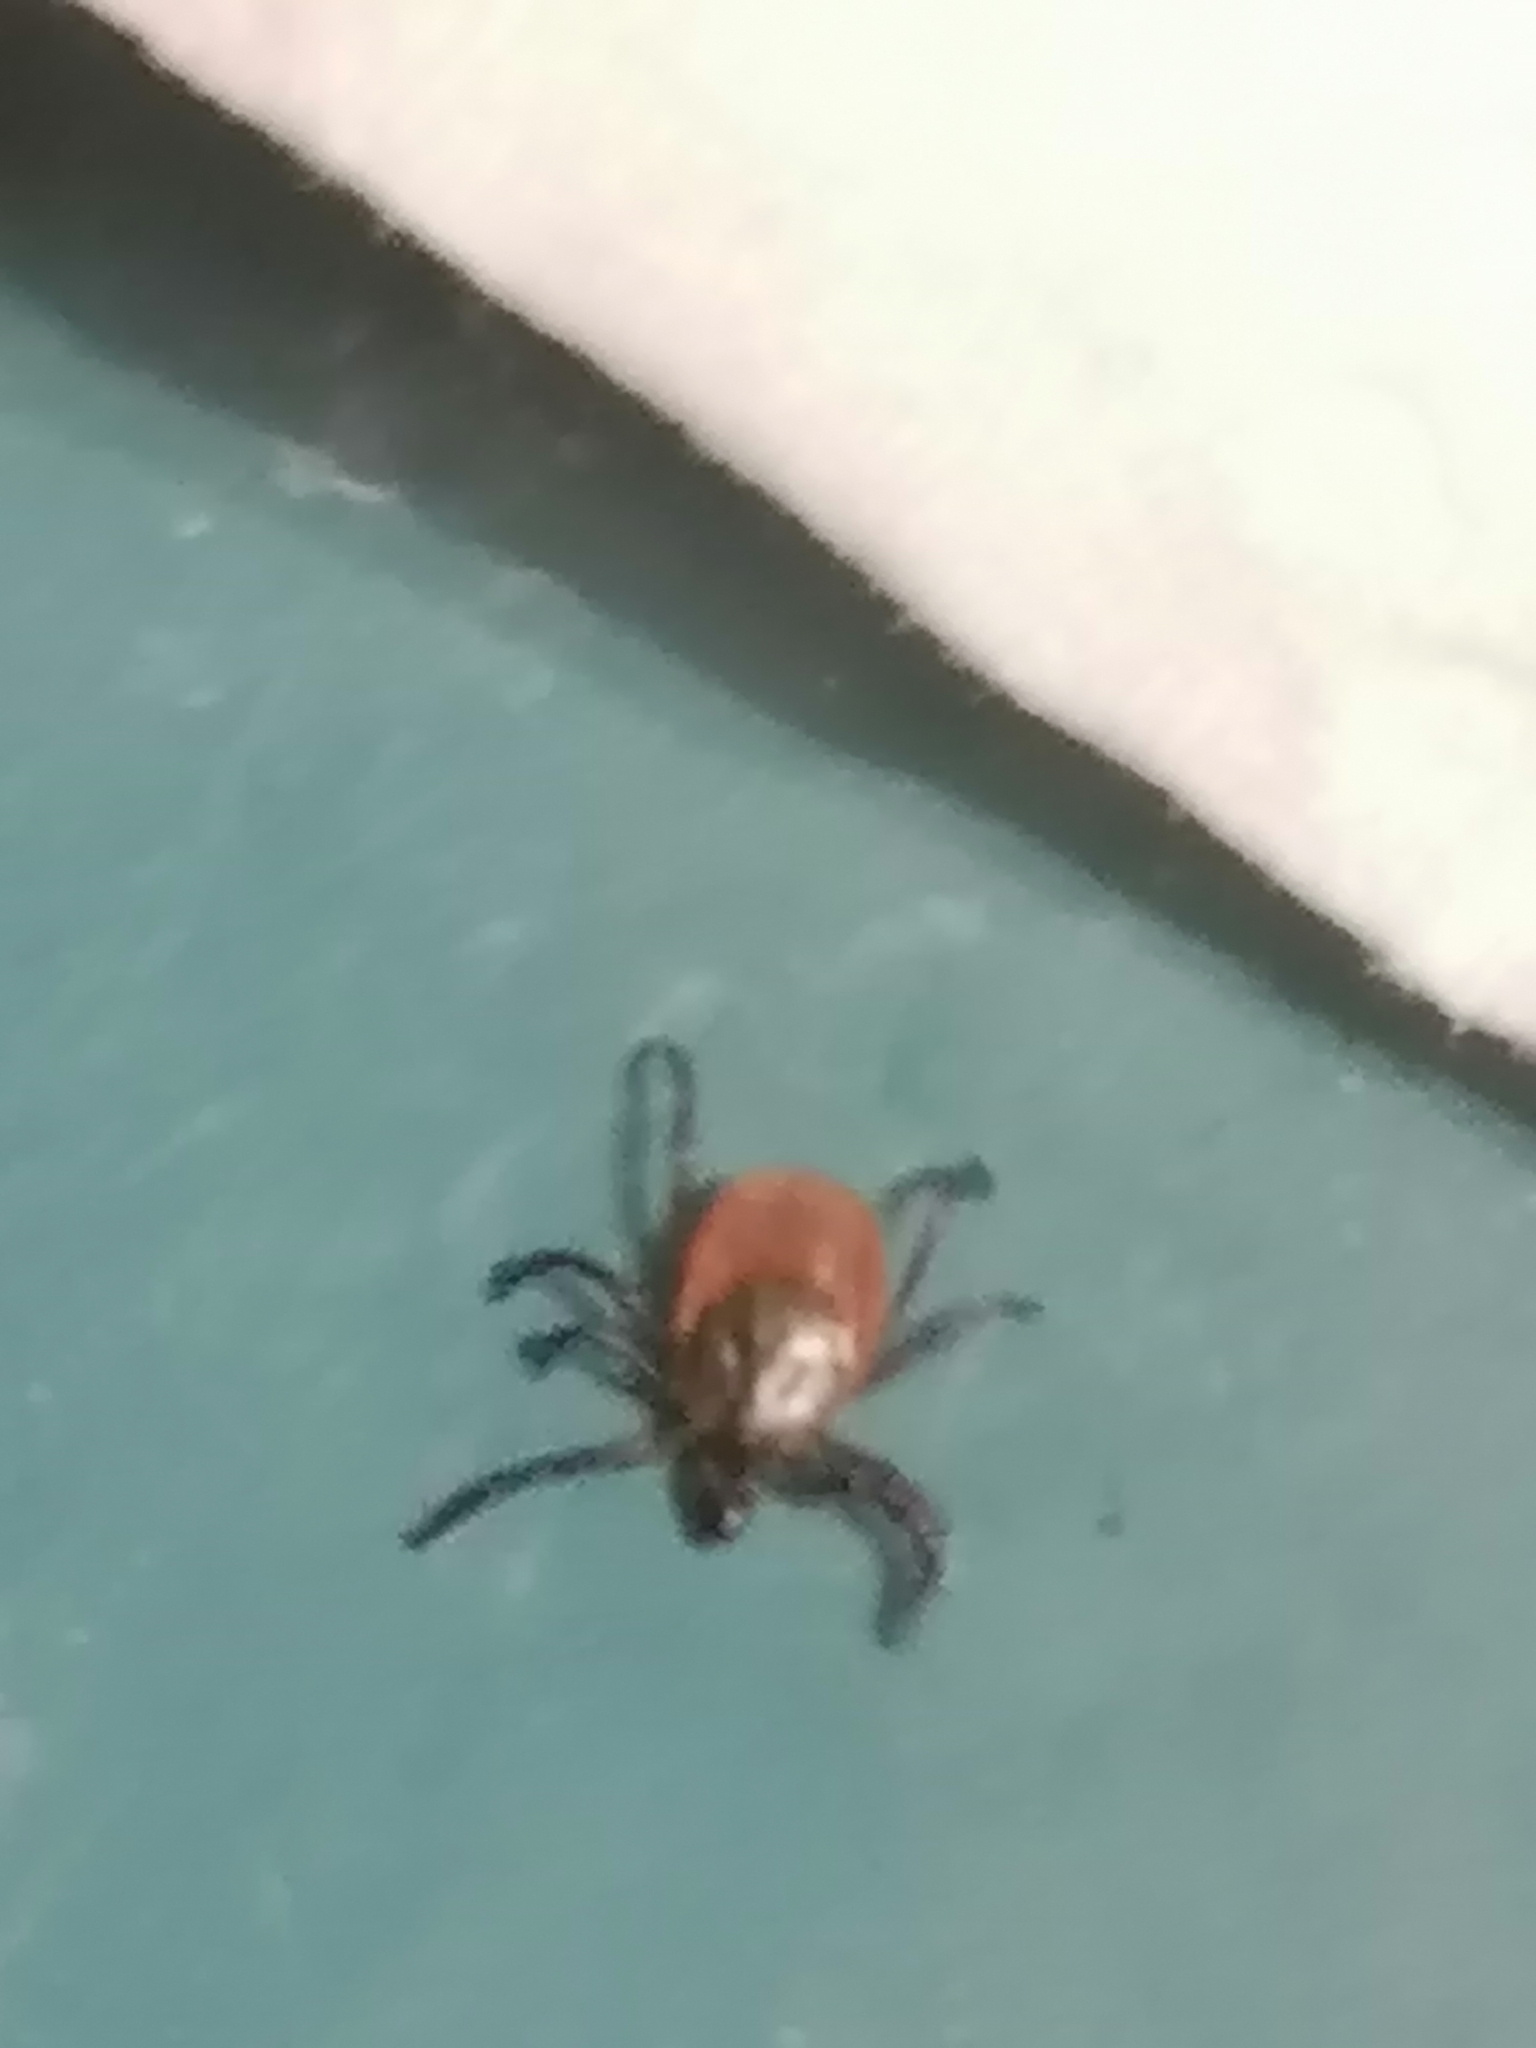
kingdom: Animalia
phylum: Arthropoda
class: Arachnida
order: Ixodida
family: Ixodidae
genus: Ixodes
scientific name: Ixodes scapularis
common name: Black legged tick
